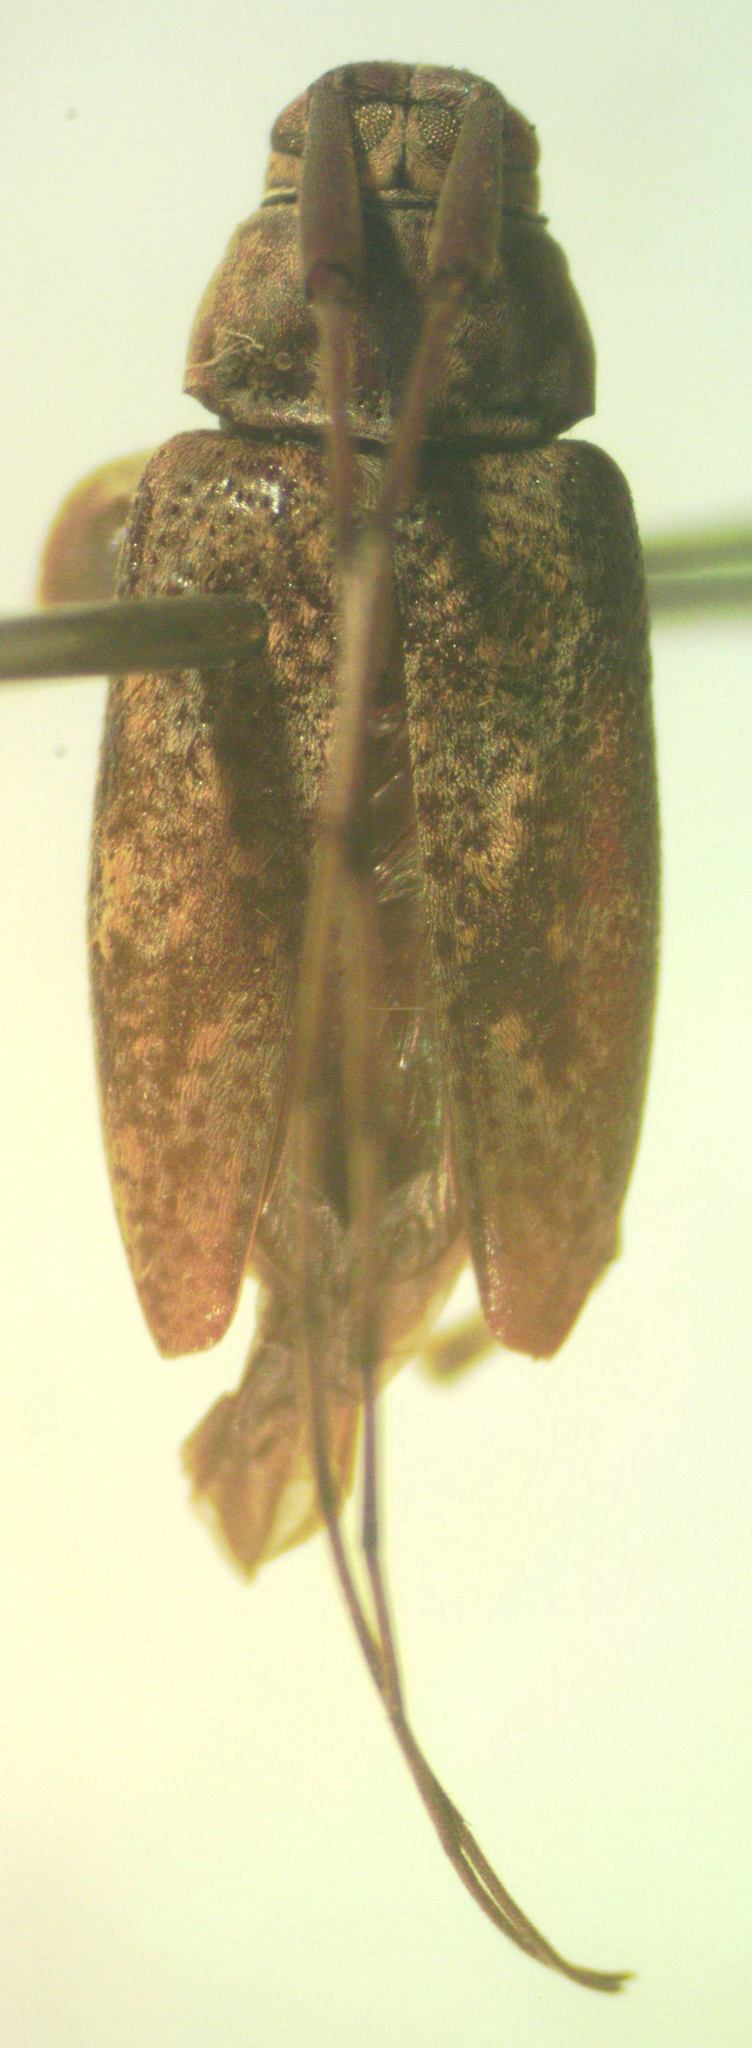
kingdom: Animalia
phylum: Arthropoda
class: Insecta
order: Coleoptera
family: Cerambycidae
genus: Atrypanius
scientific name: Atrypanius haldemani
